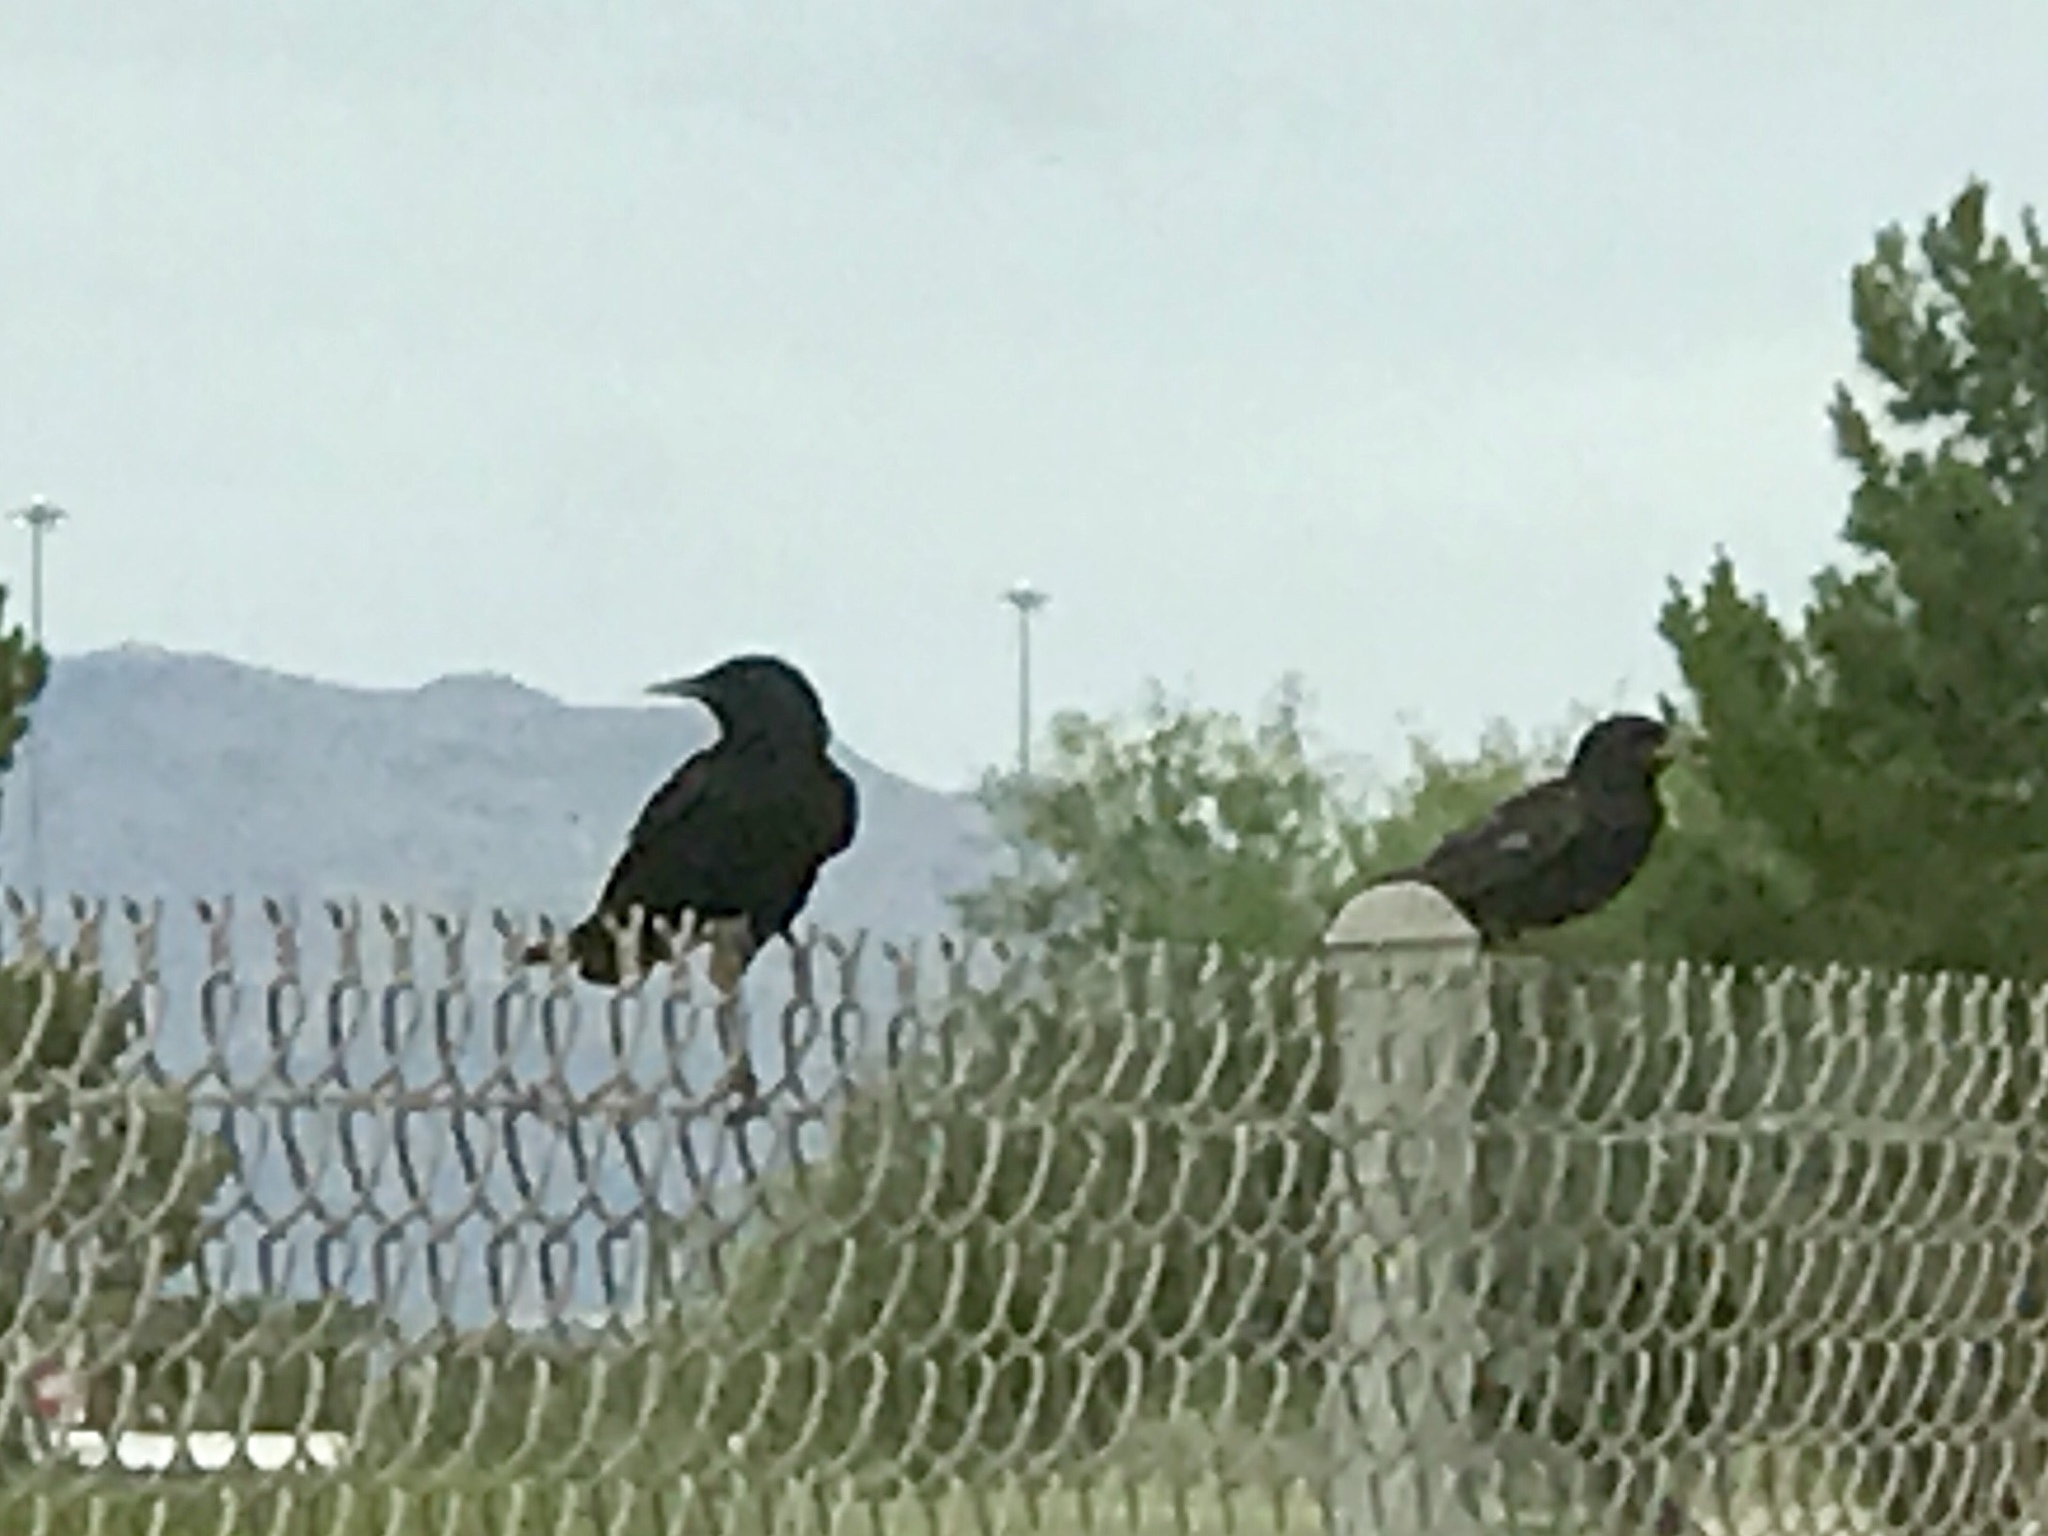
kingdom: Animalia
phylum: Chordata
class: Aves
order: Passeriformes
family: Sturnidae
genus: Sturnus
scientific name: Sturnus vulgaris
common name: Common starling
